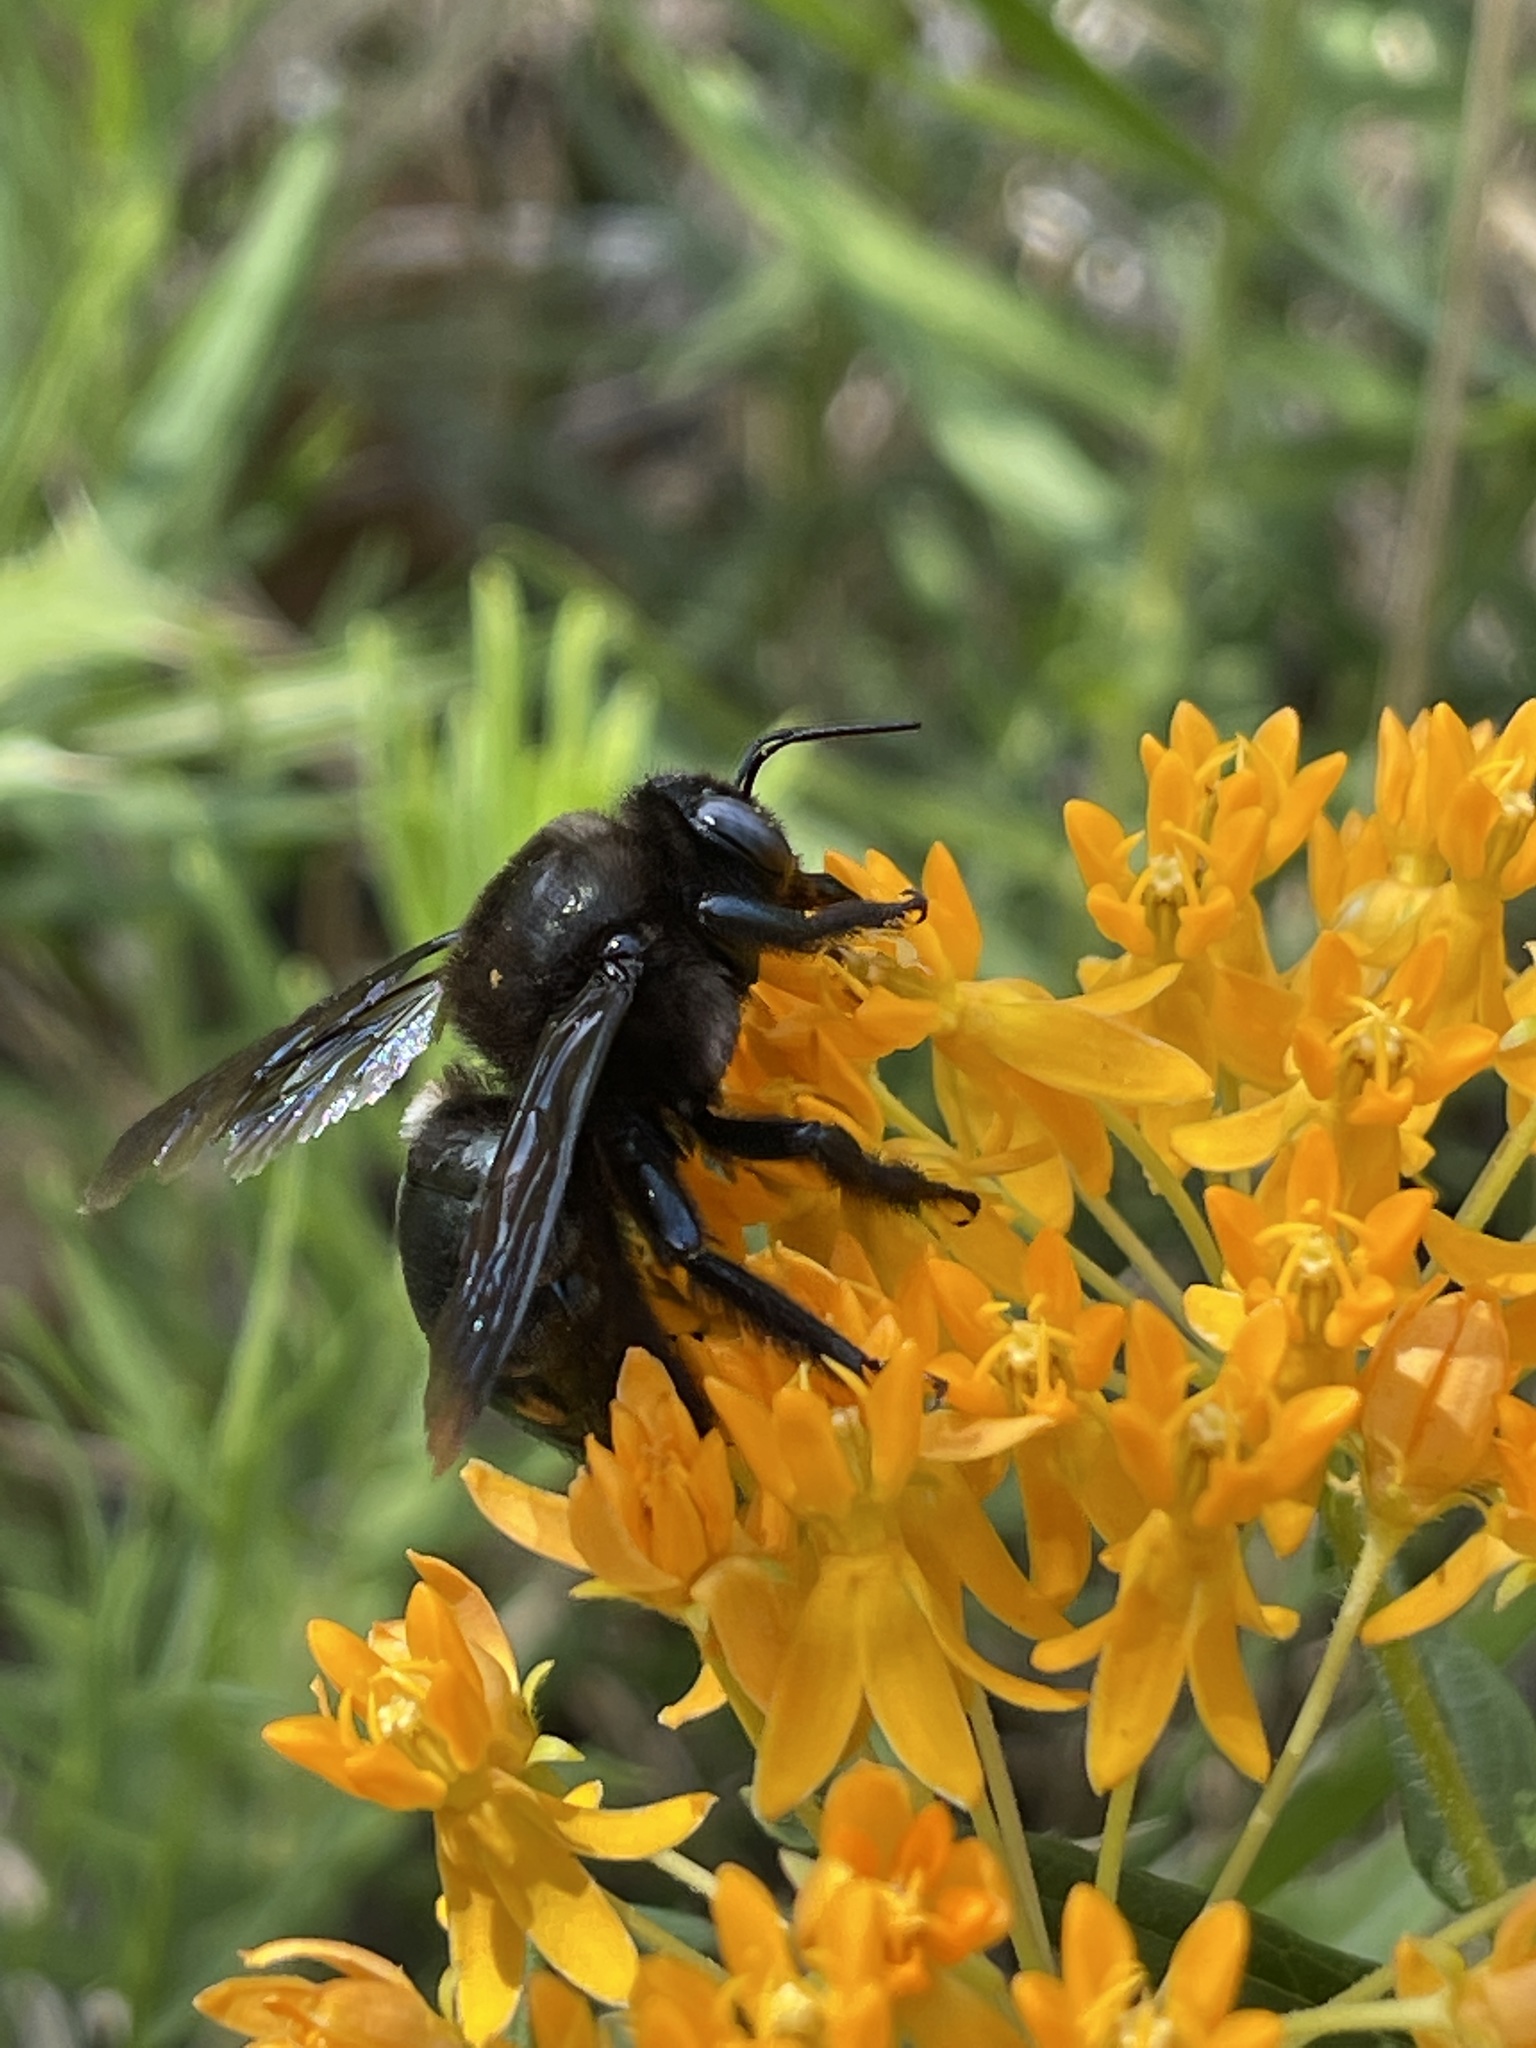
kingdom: Animalia
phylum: Arthropoda
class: Insecta
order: Hymenoptera
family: Apidae
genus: Xylocopa
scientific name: Xylocopa californica
